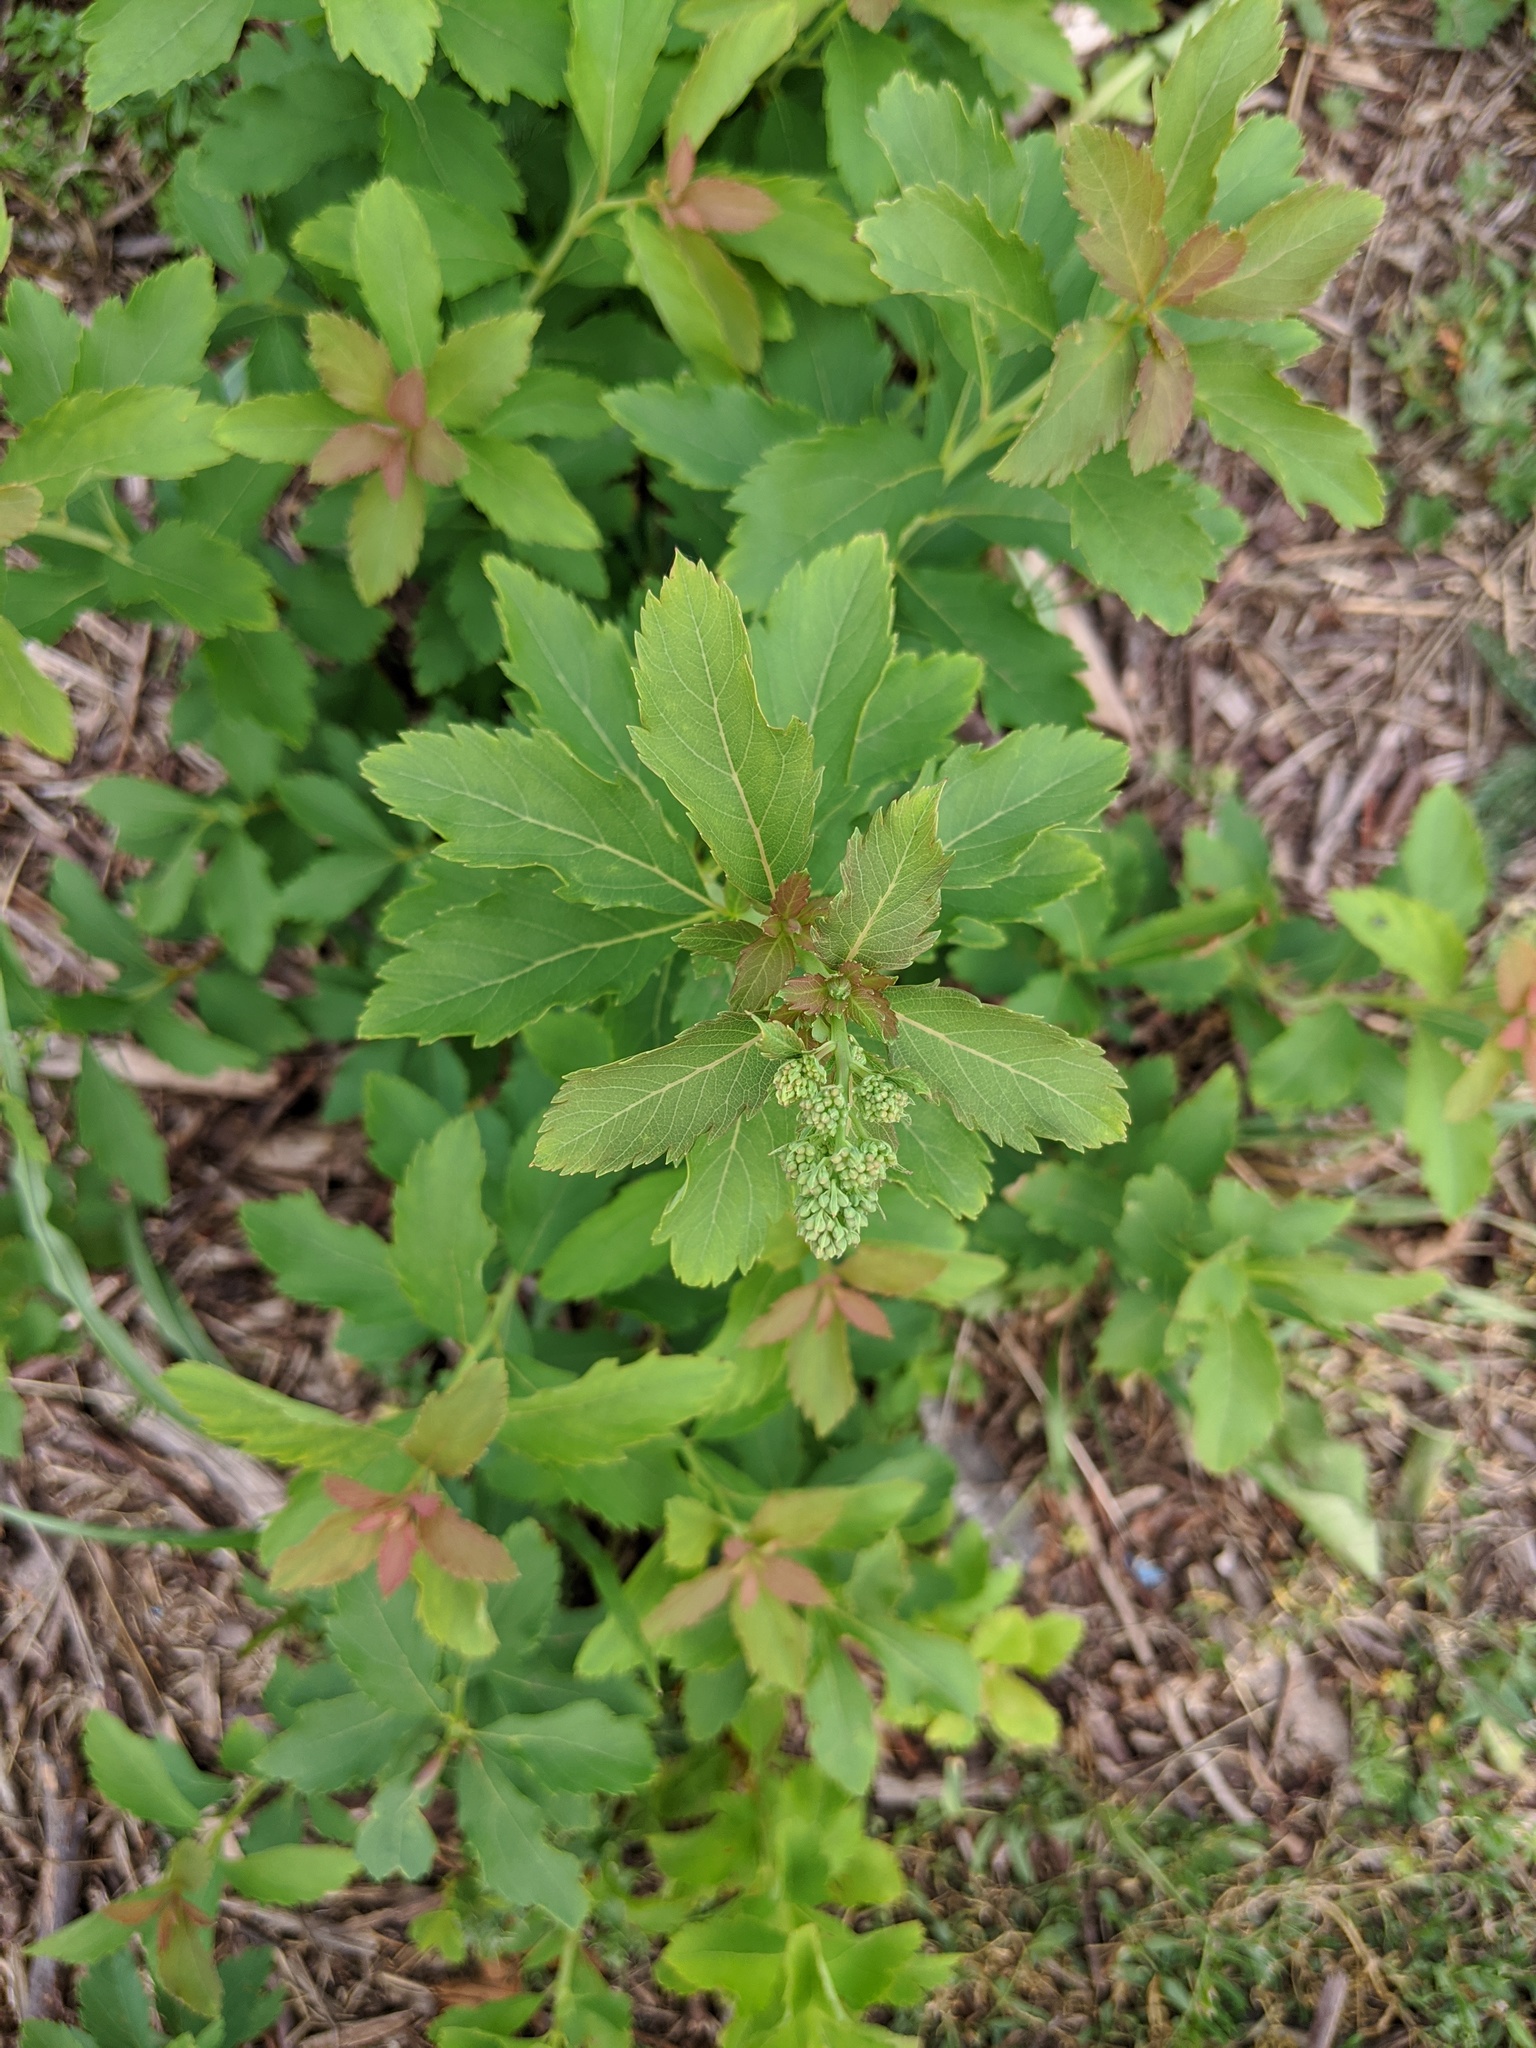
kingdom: Plantae
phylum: Tracheophyta
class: Magnoliopsida
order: Rosales
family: Rosaceae
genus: Spiraea
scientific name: Spiraea alba
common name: Pale bridewort
